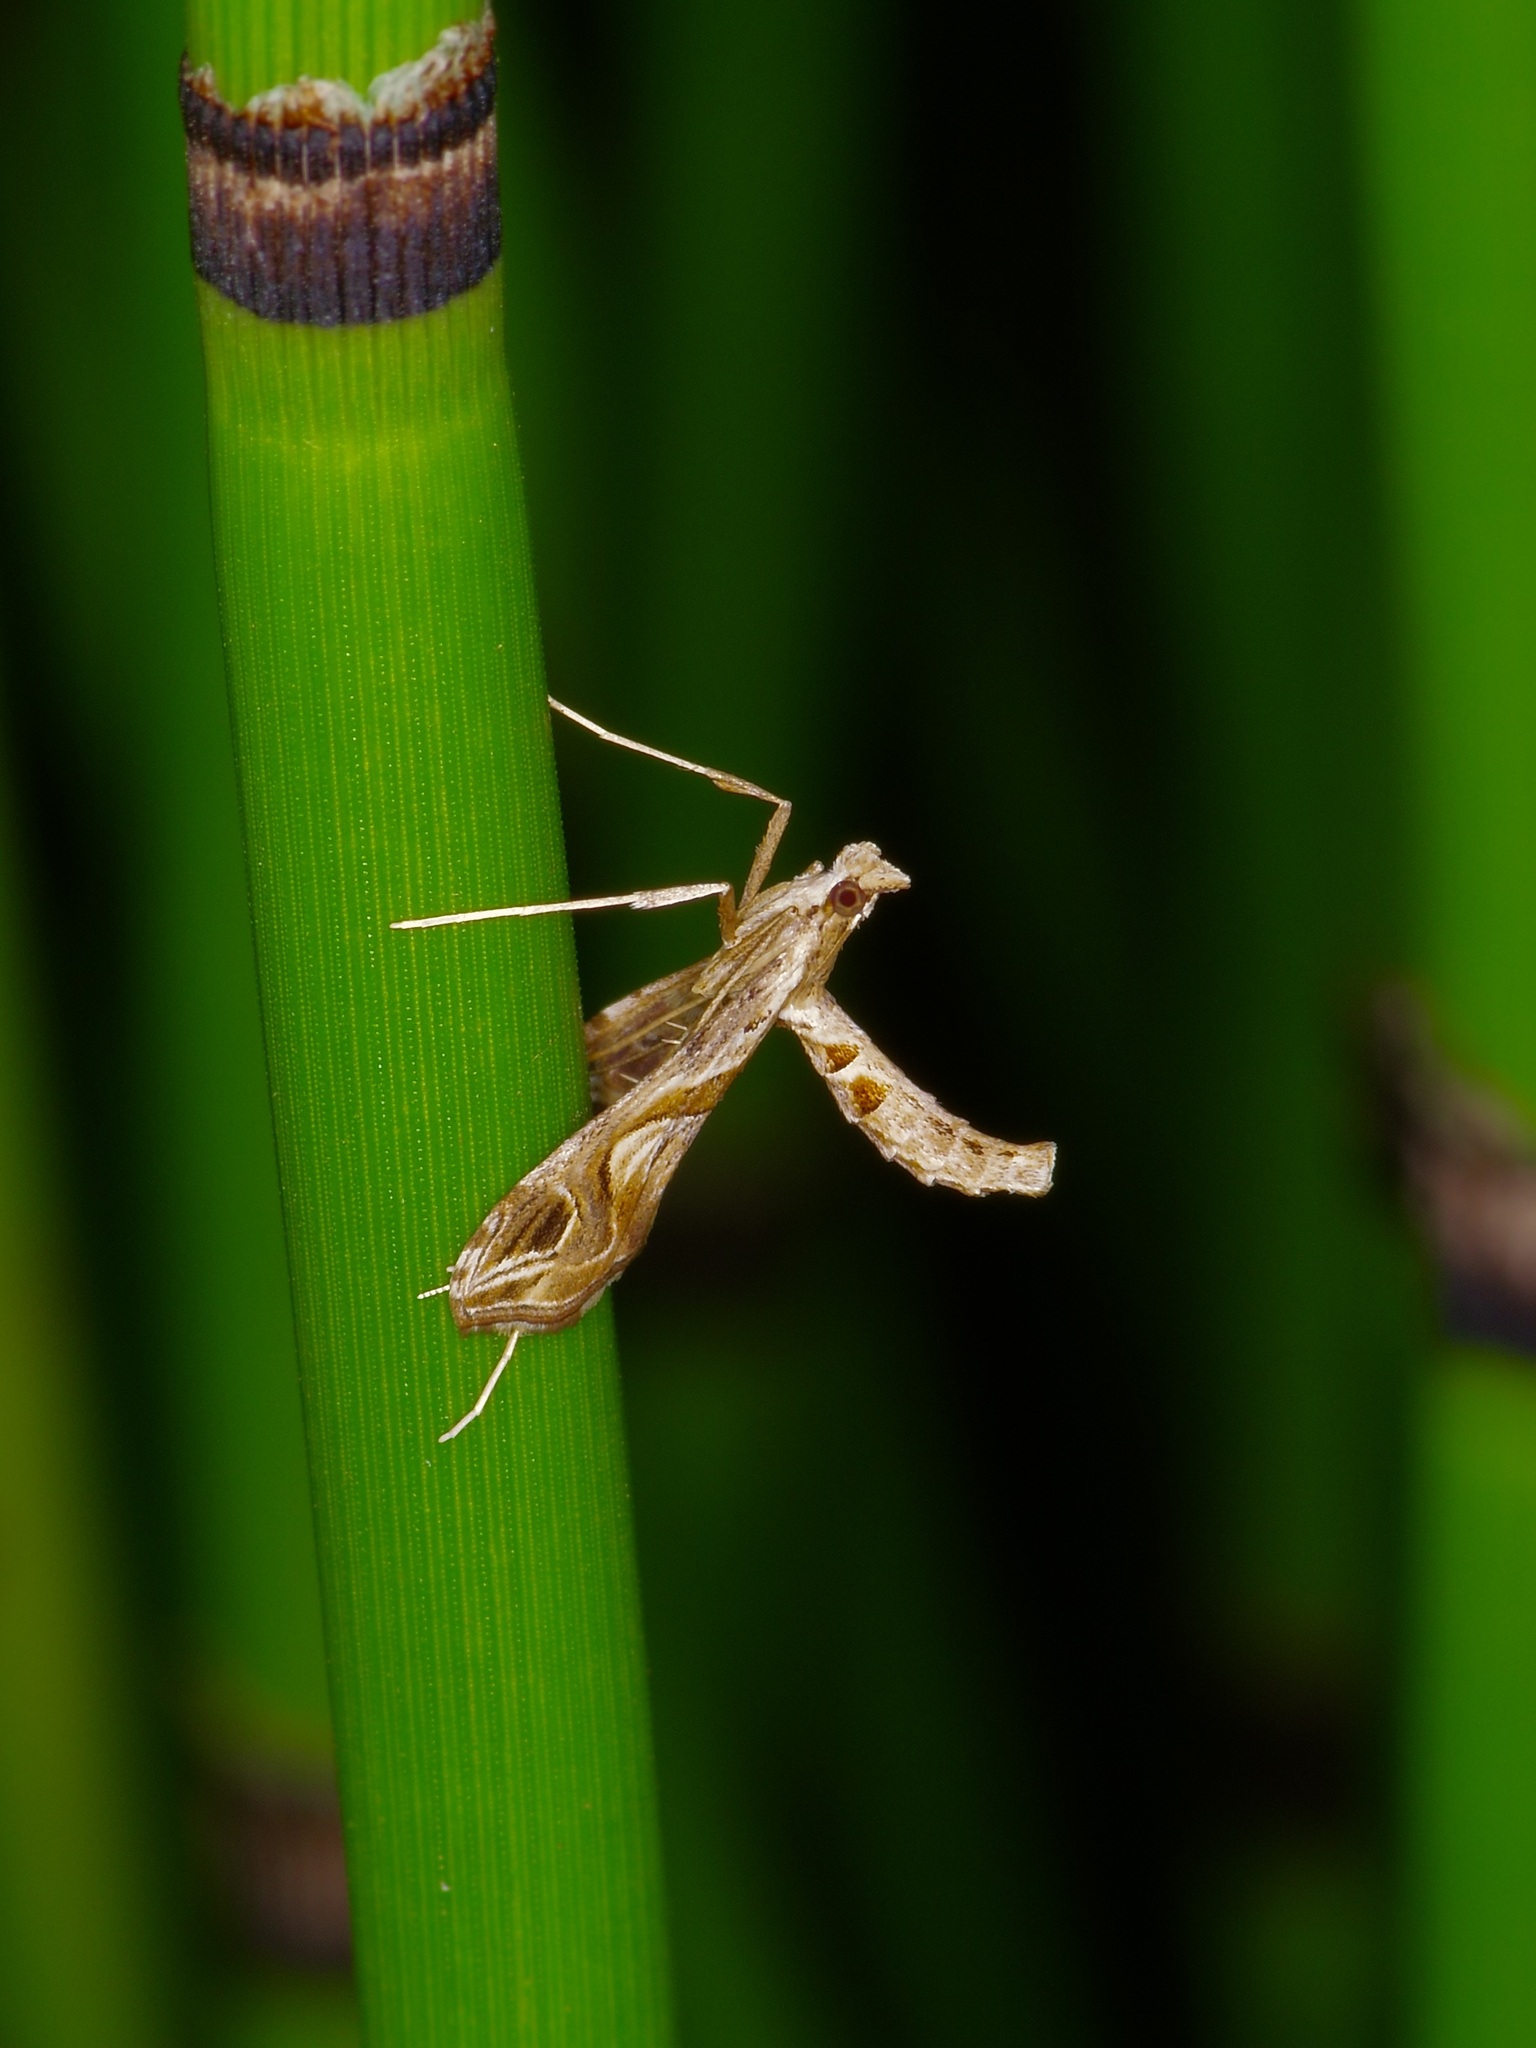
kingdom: Animalia
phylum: Arthropoda
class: Insecta
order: Lepidoptera
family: Crambidae
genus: Lineodes
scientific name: Lineodes integra
